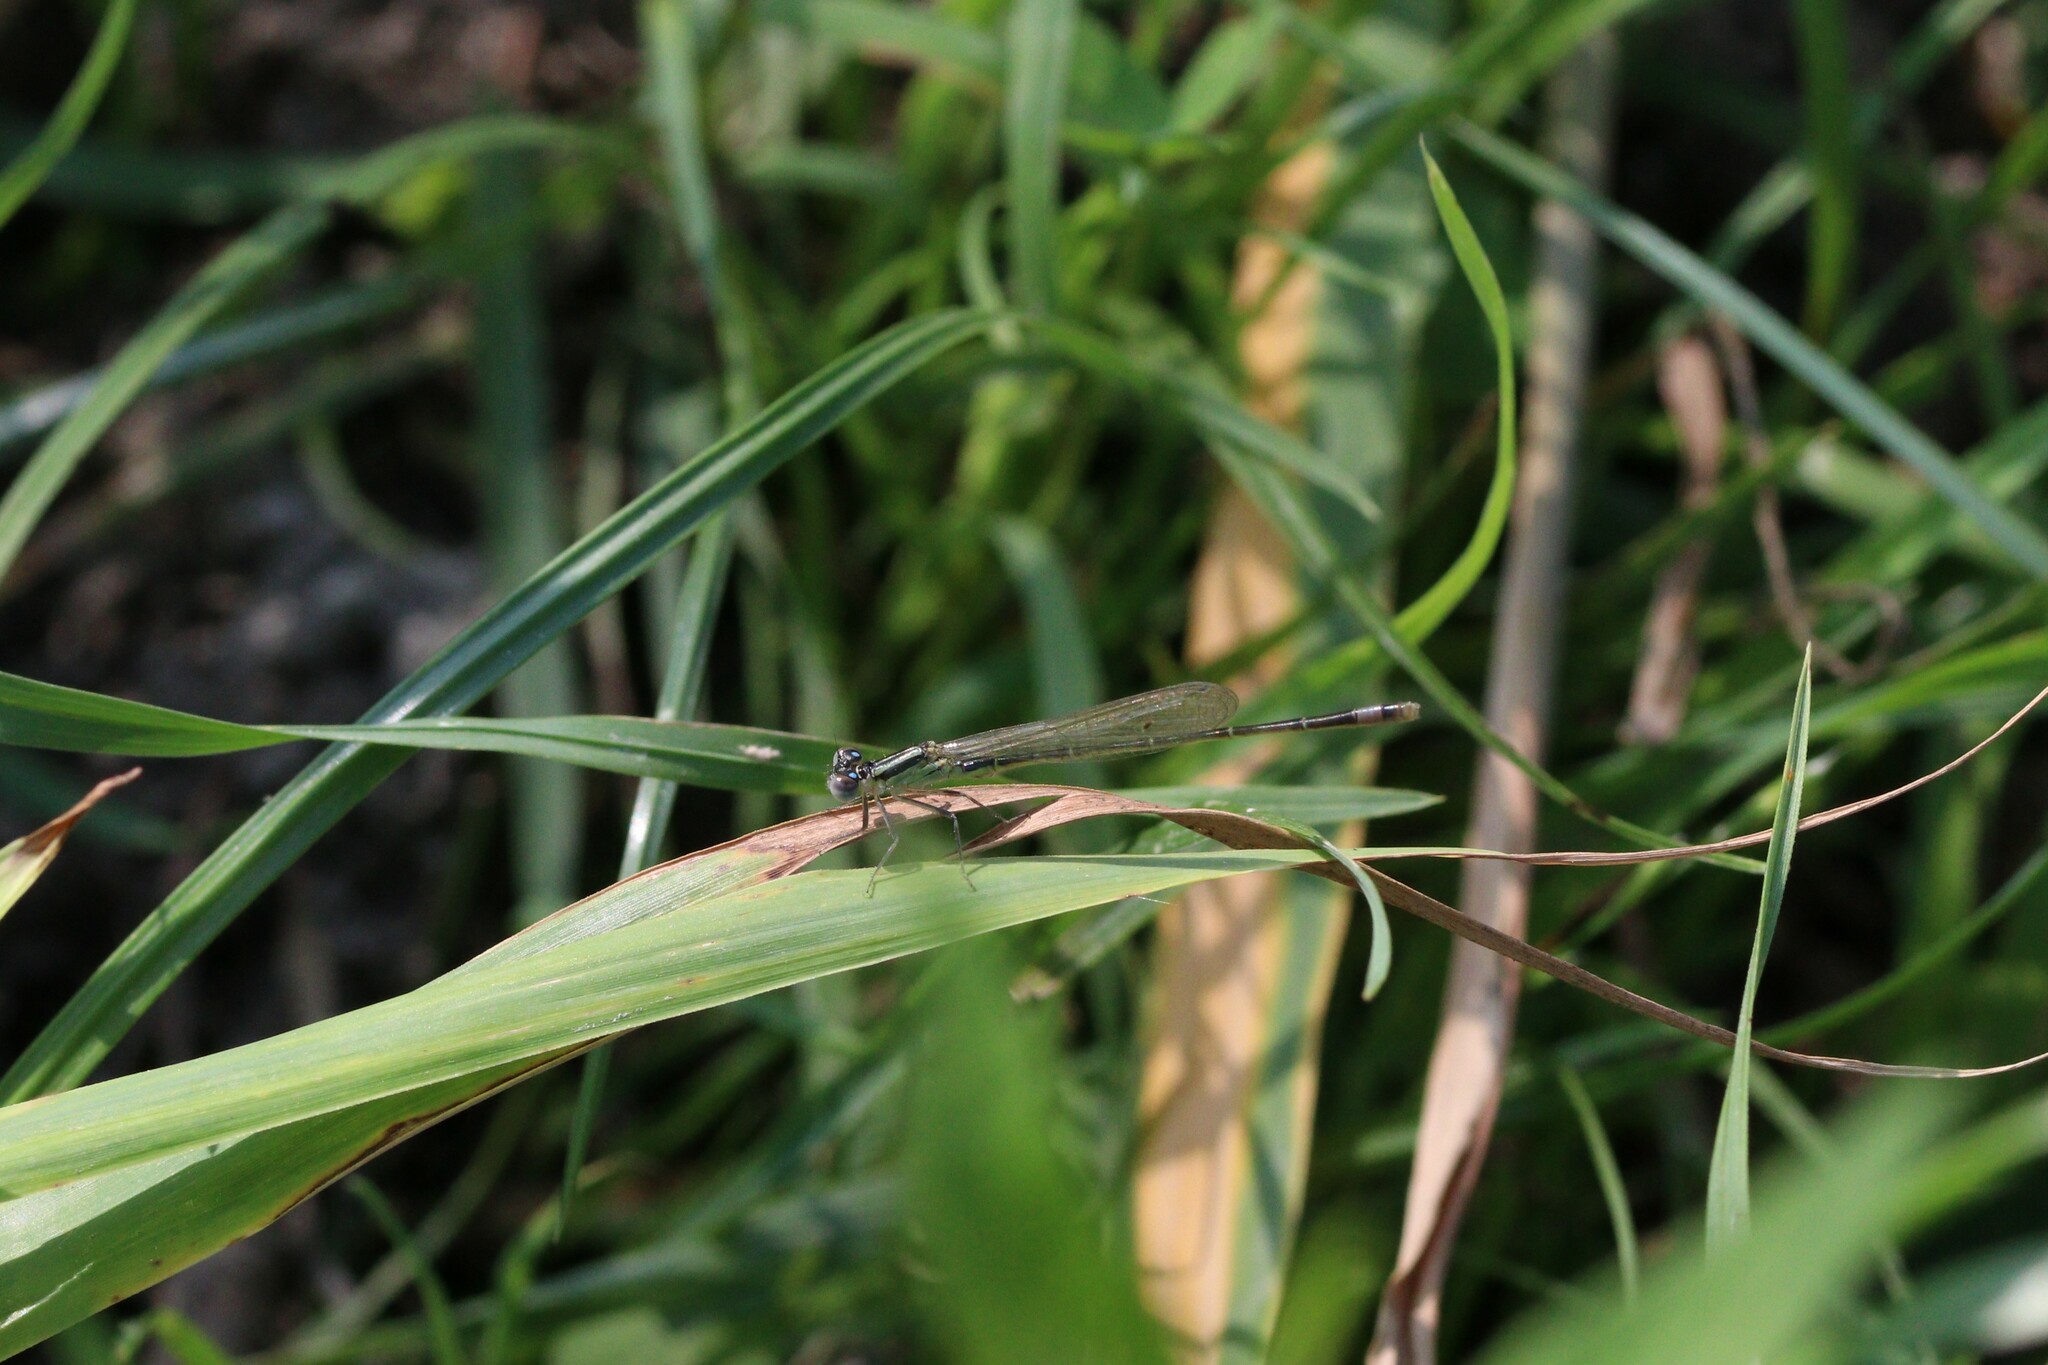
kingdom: Animalia
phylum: Arthropoda
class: Insecta
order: Odonata
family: Coenagrionidae
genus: Ischnura
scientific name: Ischnura elegans
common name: Blue-tailed damselfly
